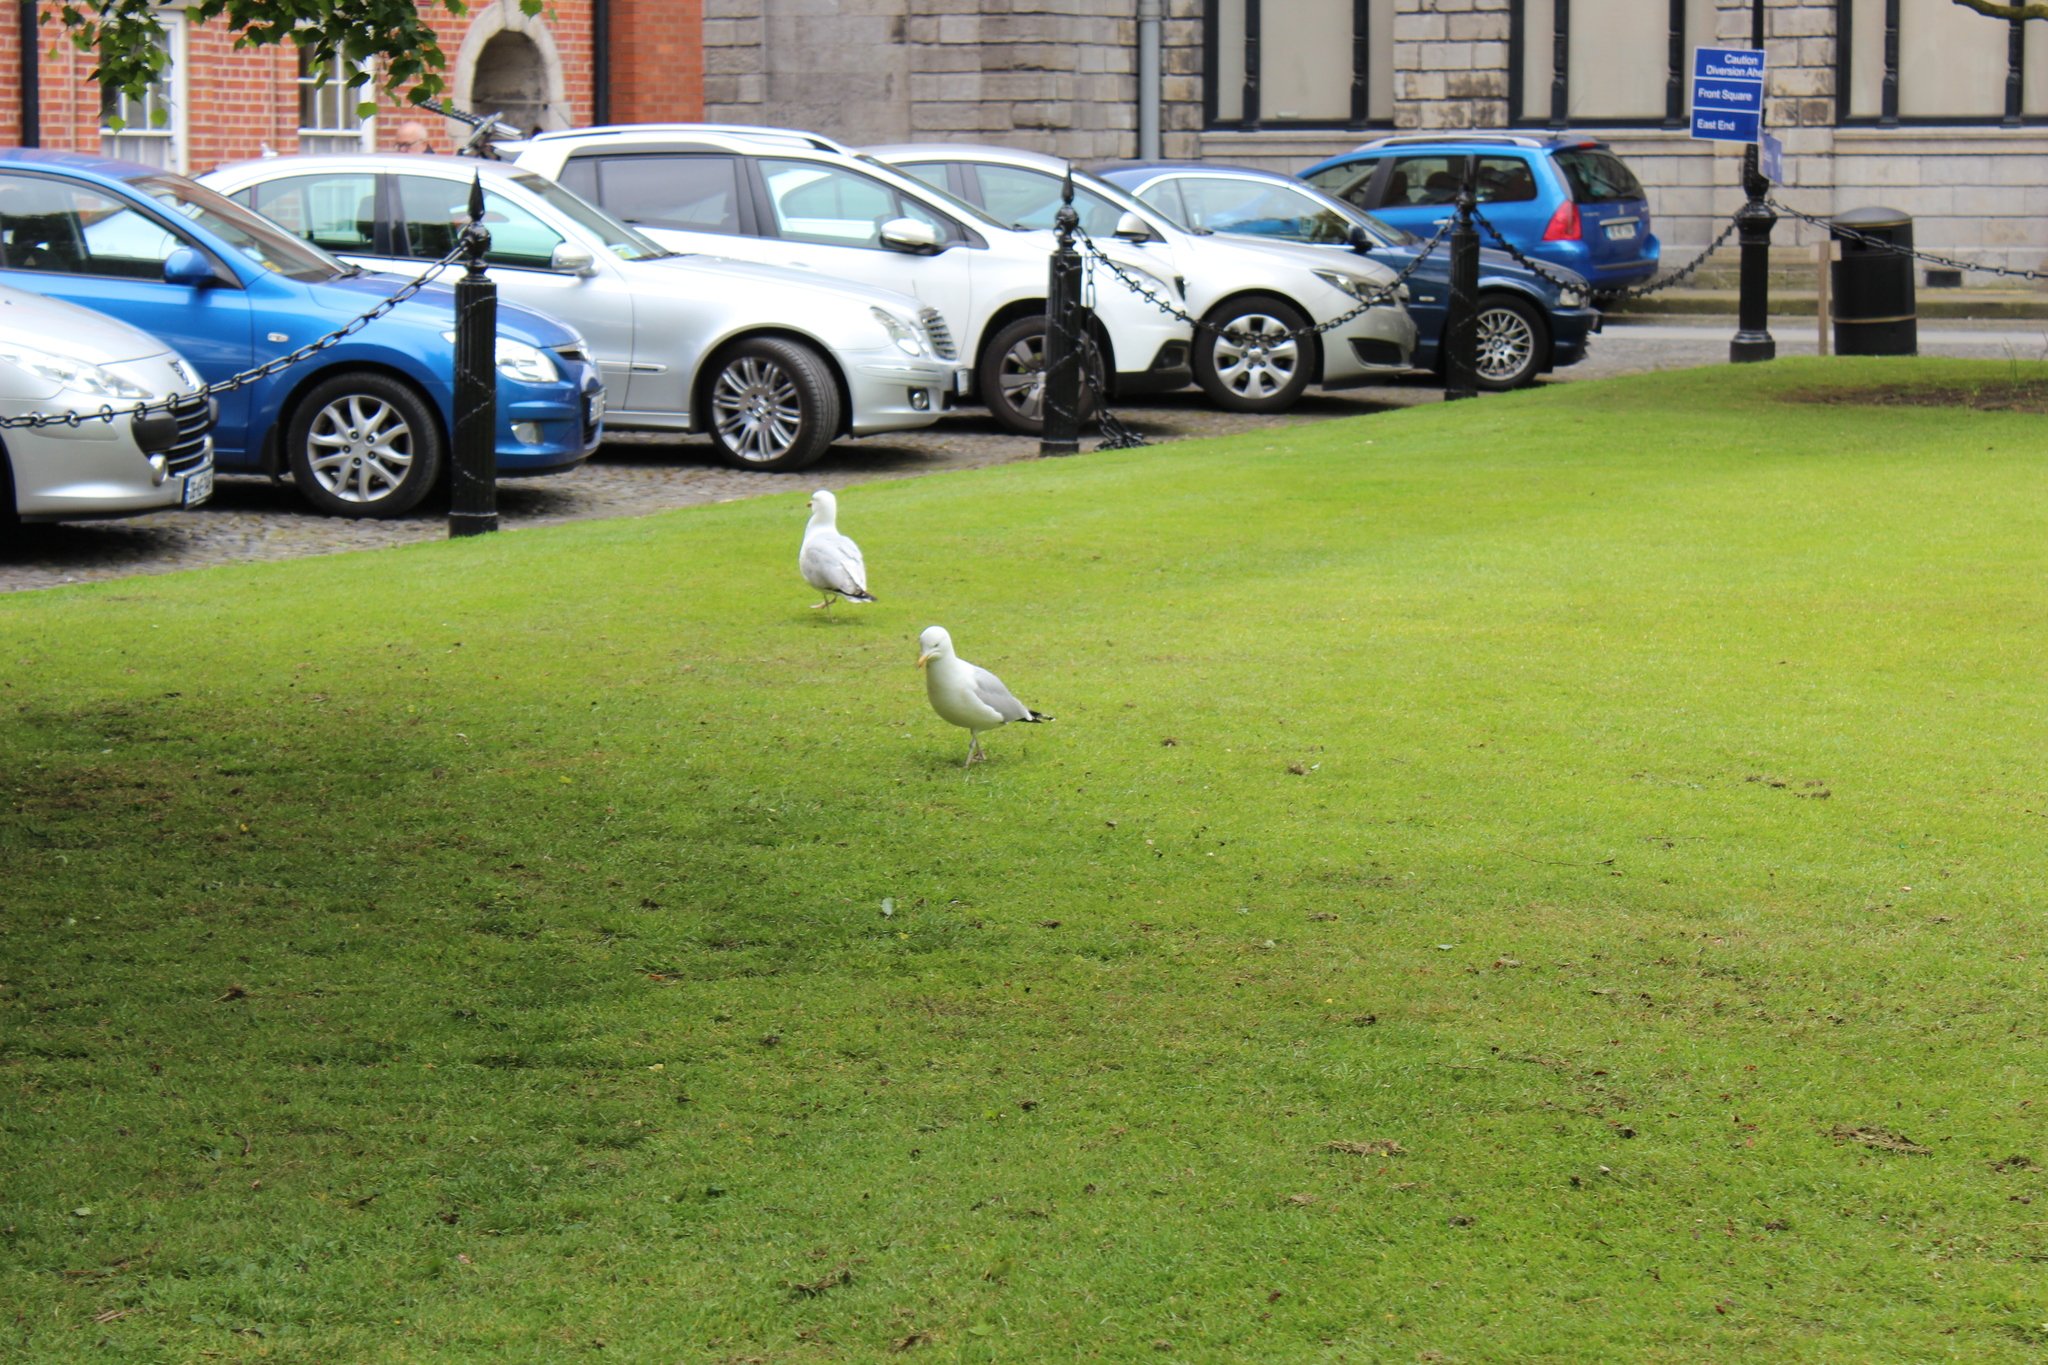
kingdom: Animalia
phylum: Chordata
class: Aves
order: Charadriiformes
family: Laridae
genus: Larus
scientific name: Larus argentatus
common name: Herring gull
